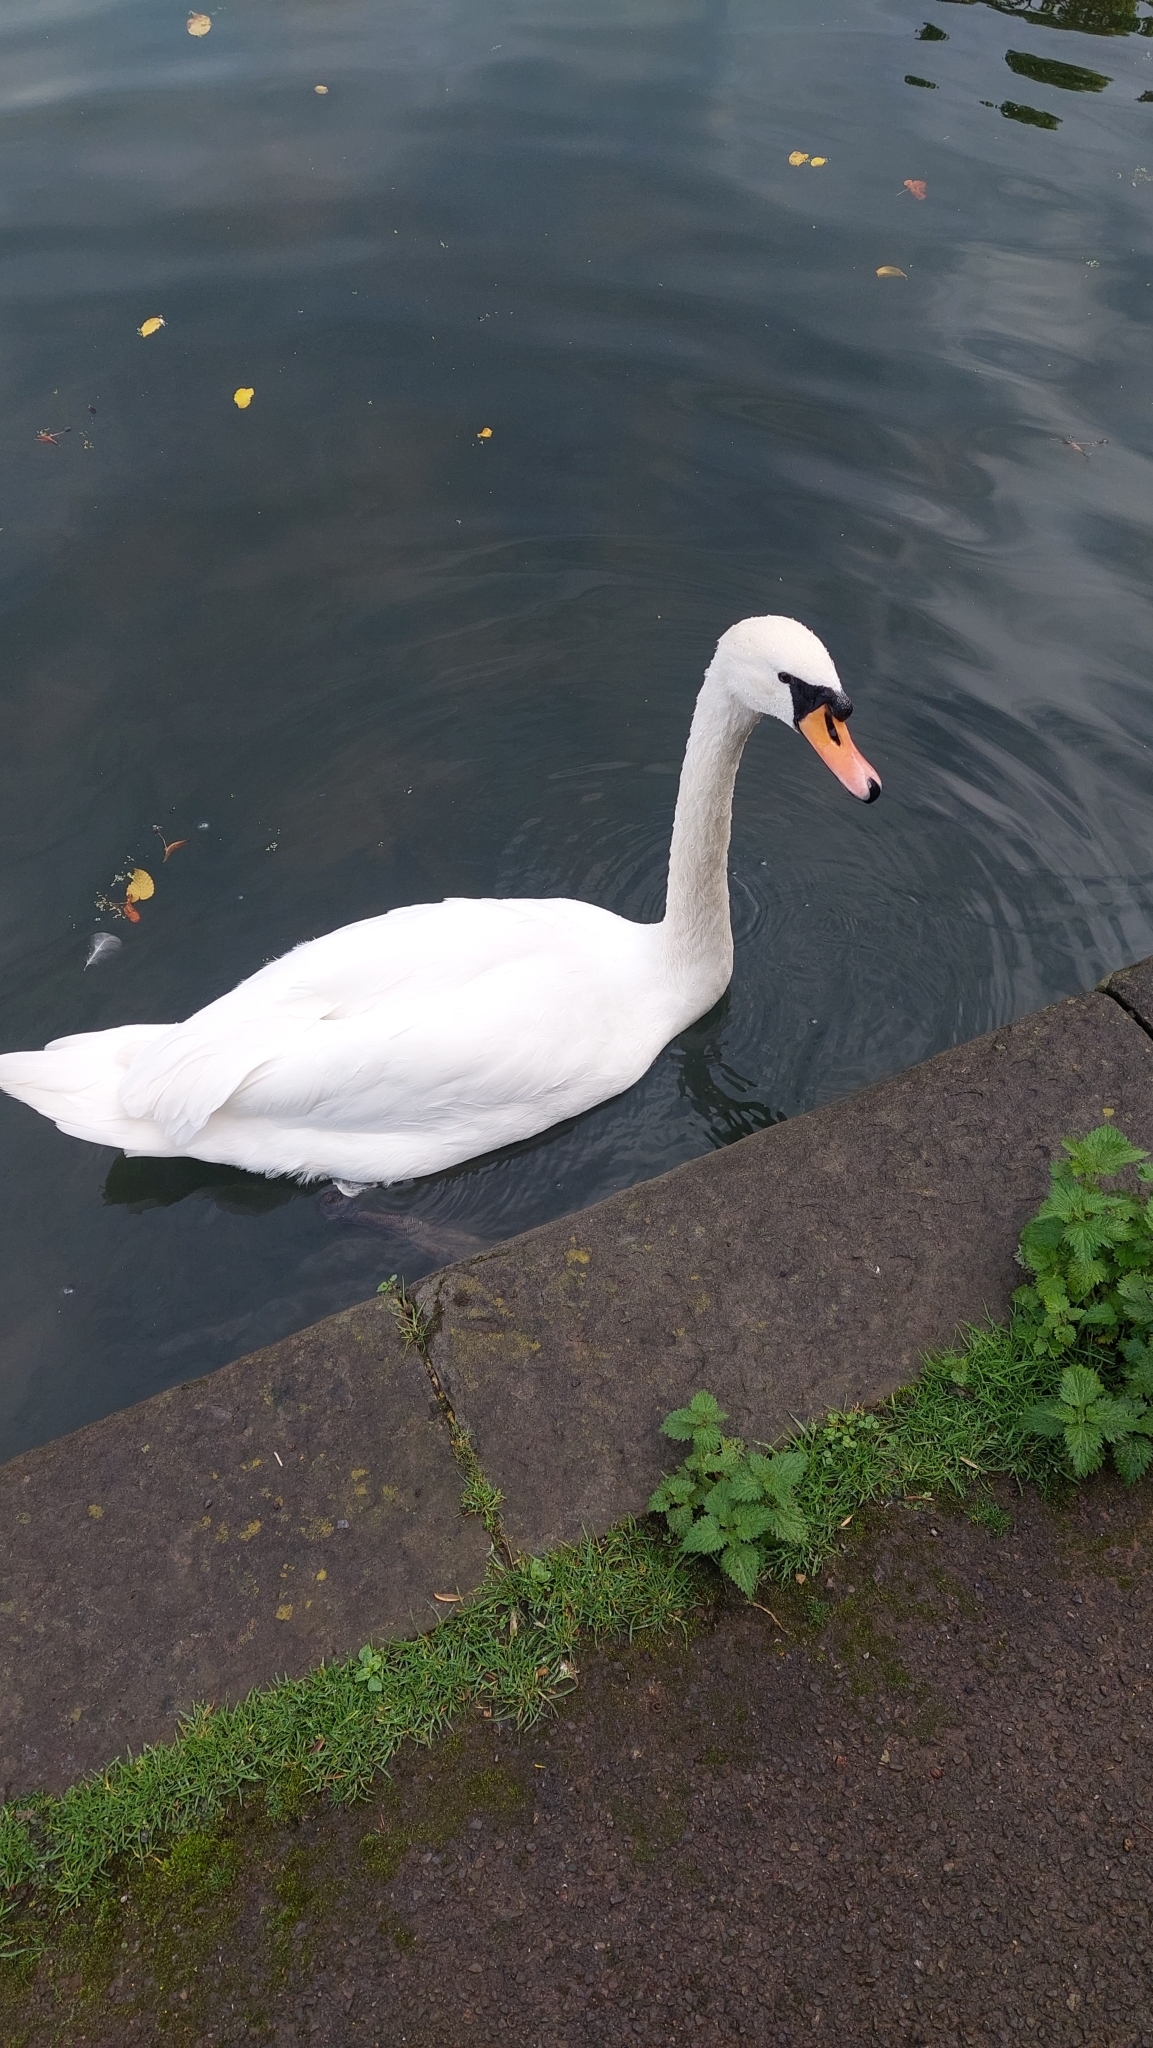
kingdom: Animalia
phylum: Chordata
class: Aves
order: Anseriformes
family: Anatidae
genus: Cygnus
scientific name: Cygnus olor
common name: Mute swan
